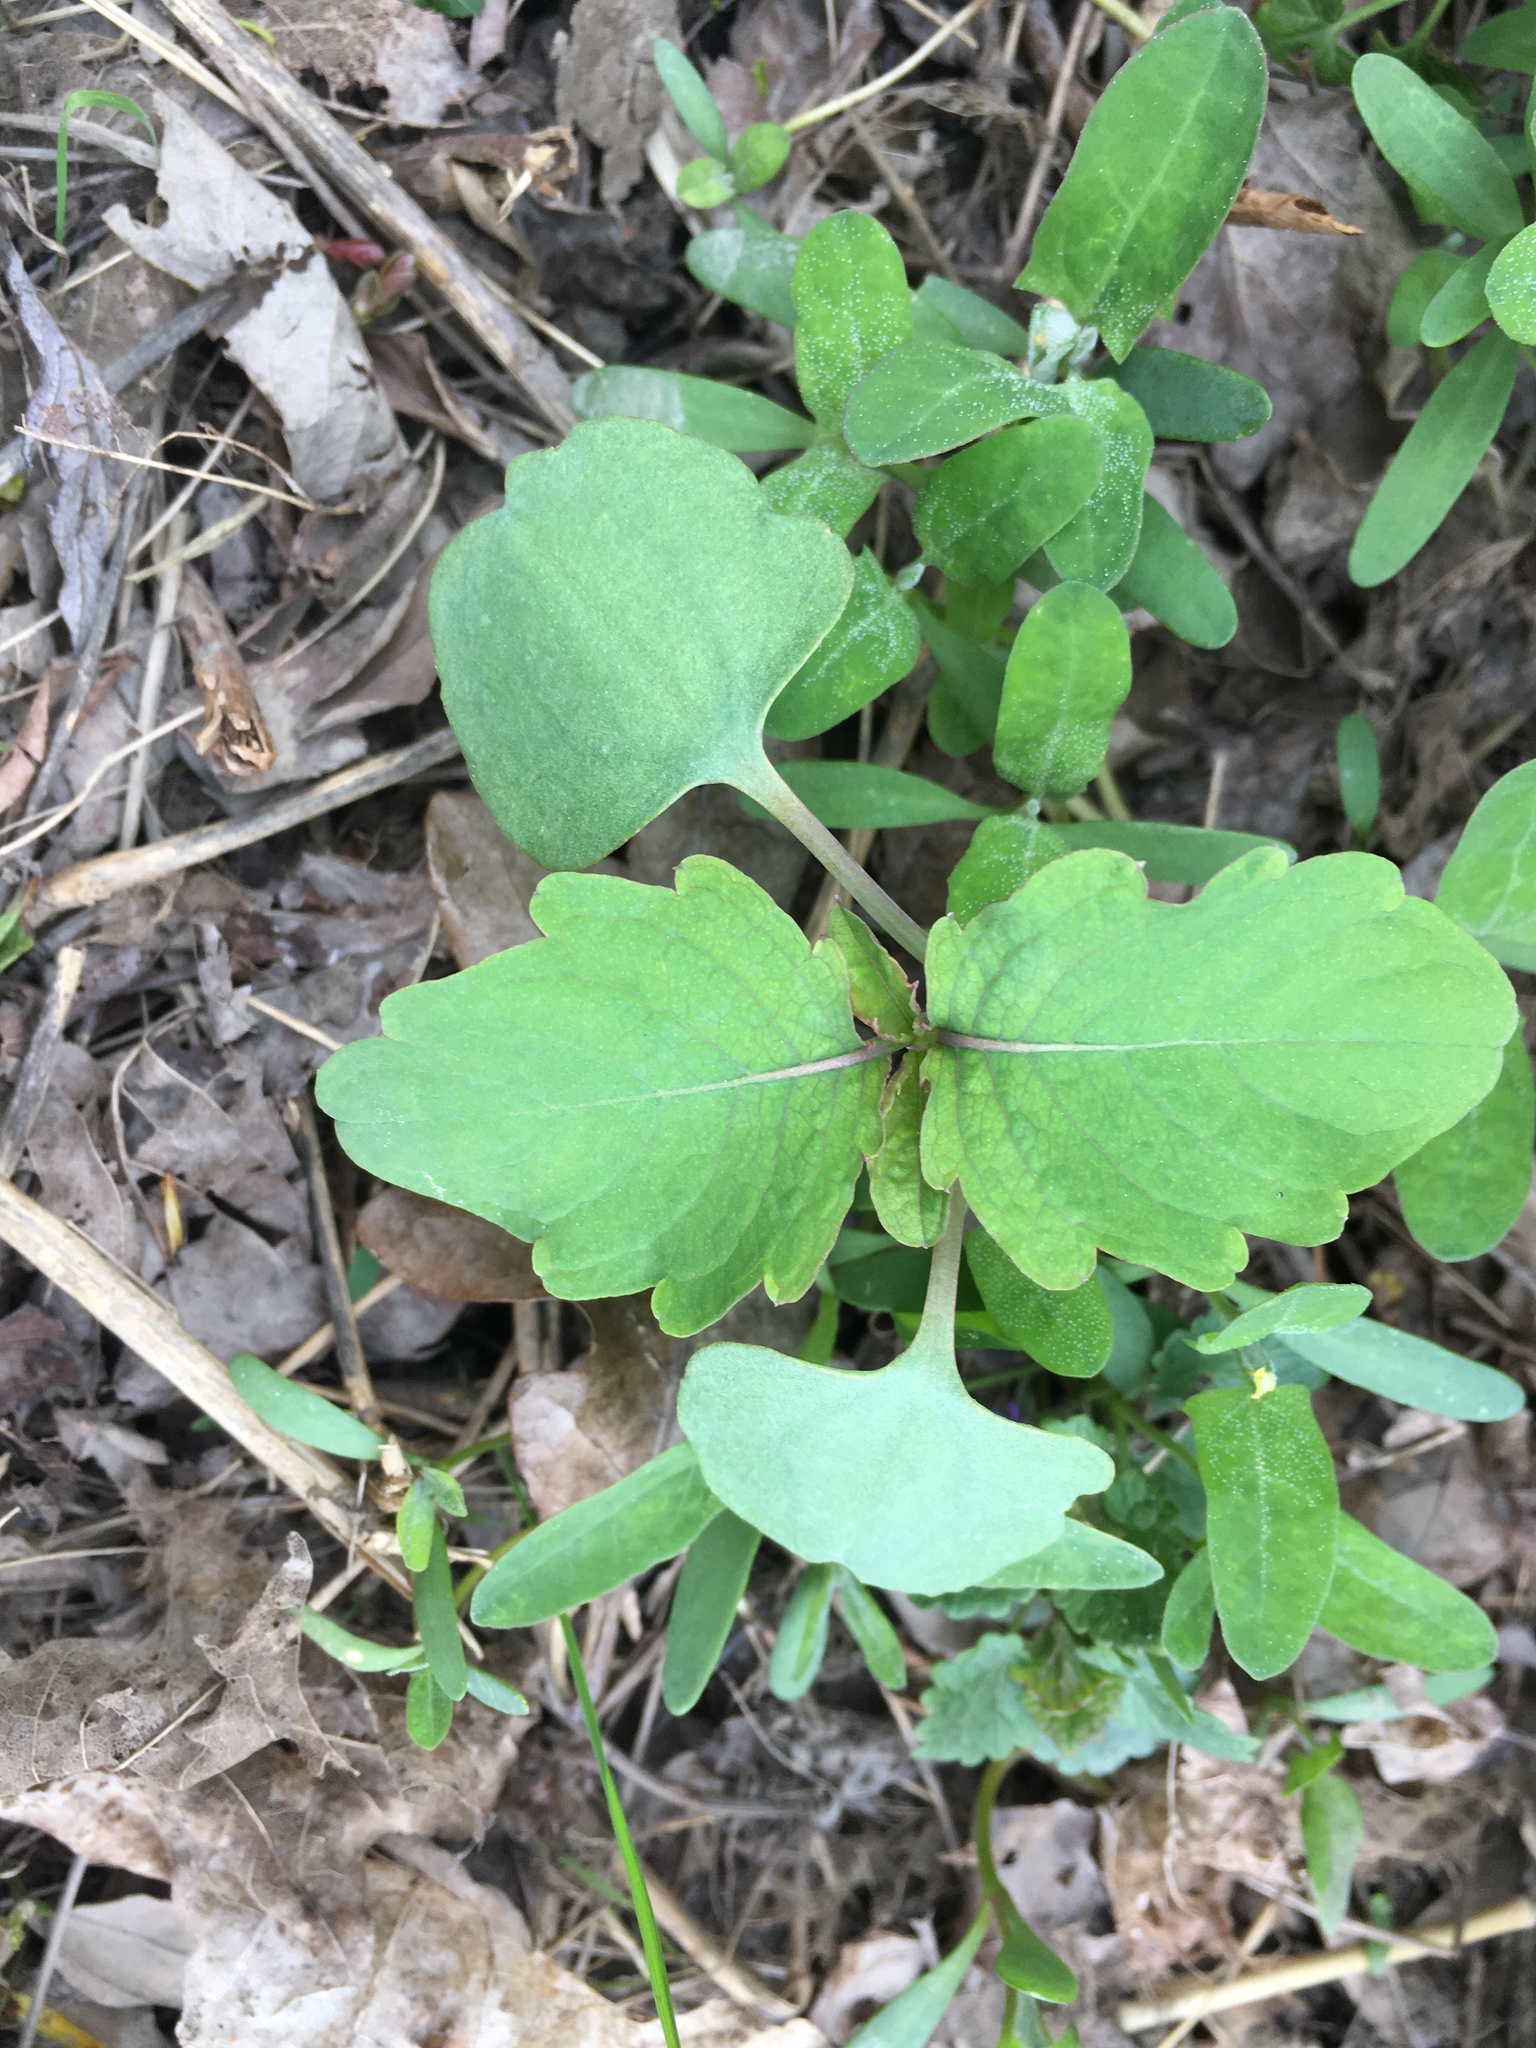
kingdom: Plantae
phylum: Tracheophyta
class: Magnoliopsida
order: Ericales
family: Balsaminaceae
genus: Impatiens
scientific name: Impatiens capensis
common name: Orange balsam
